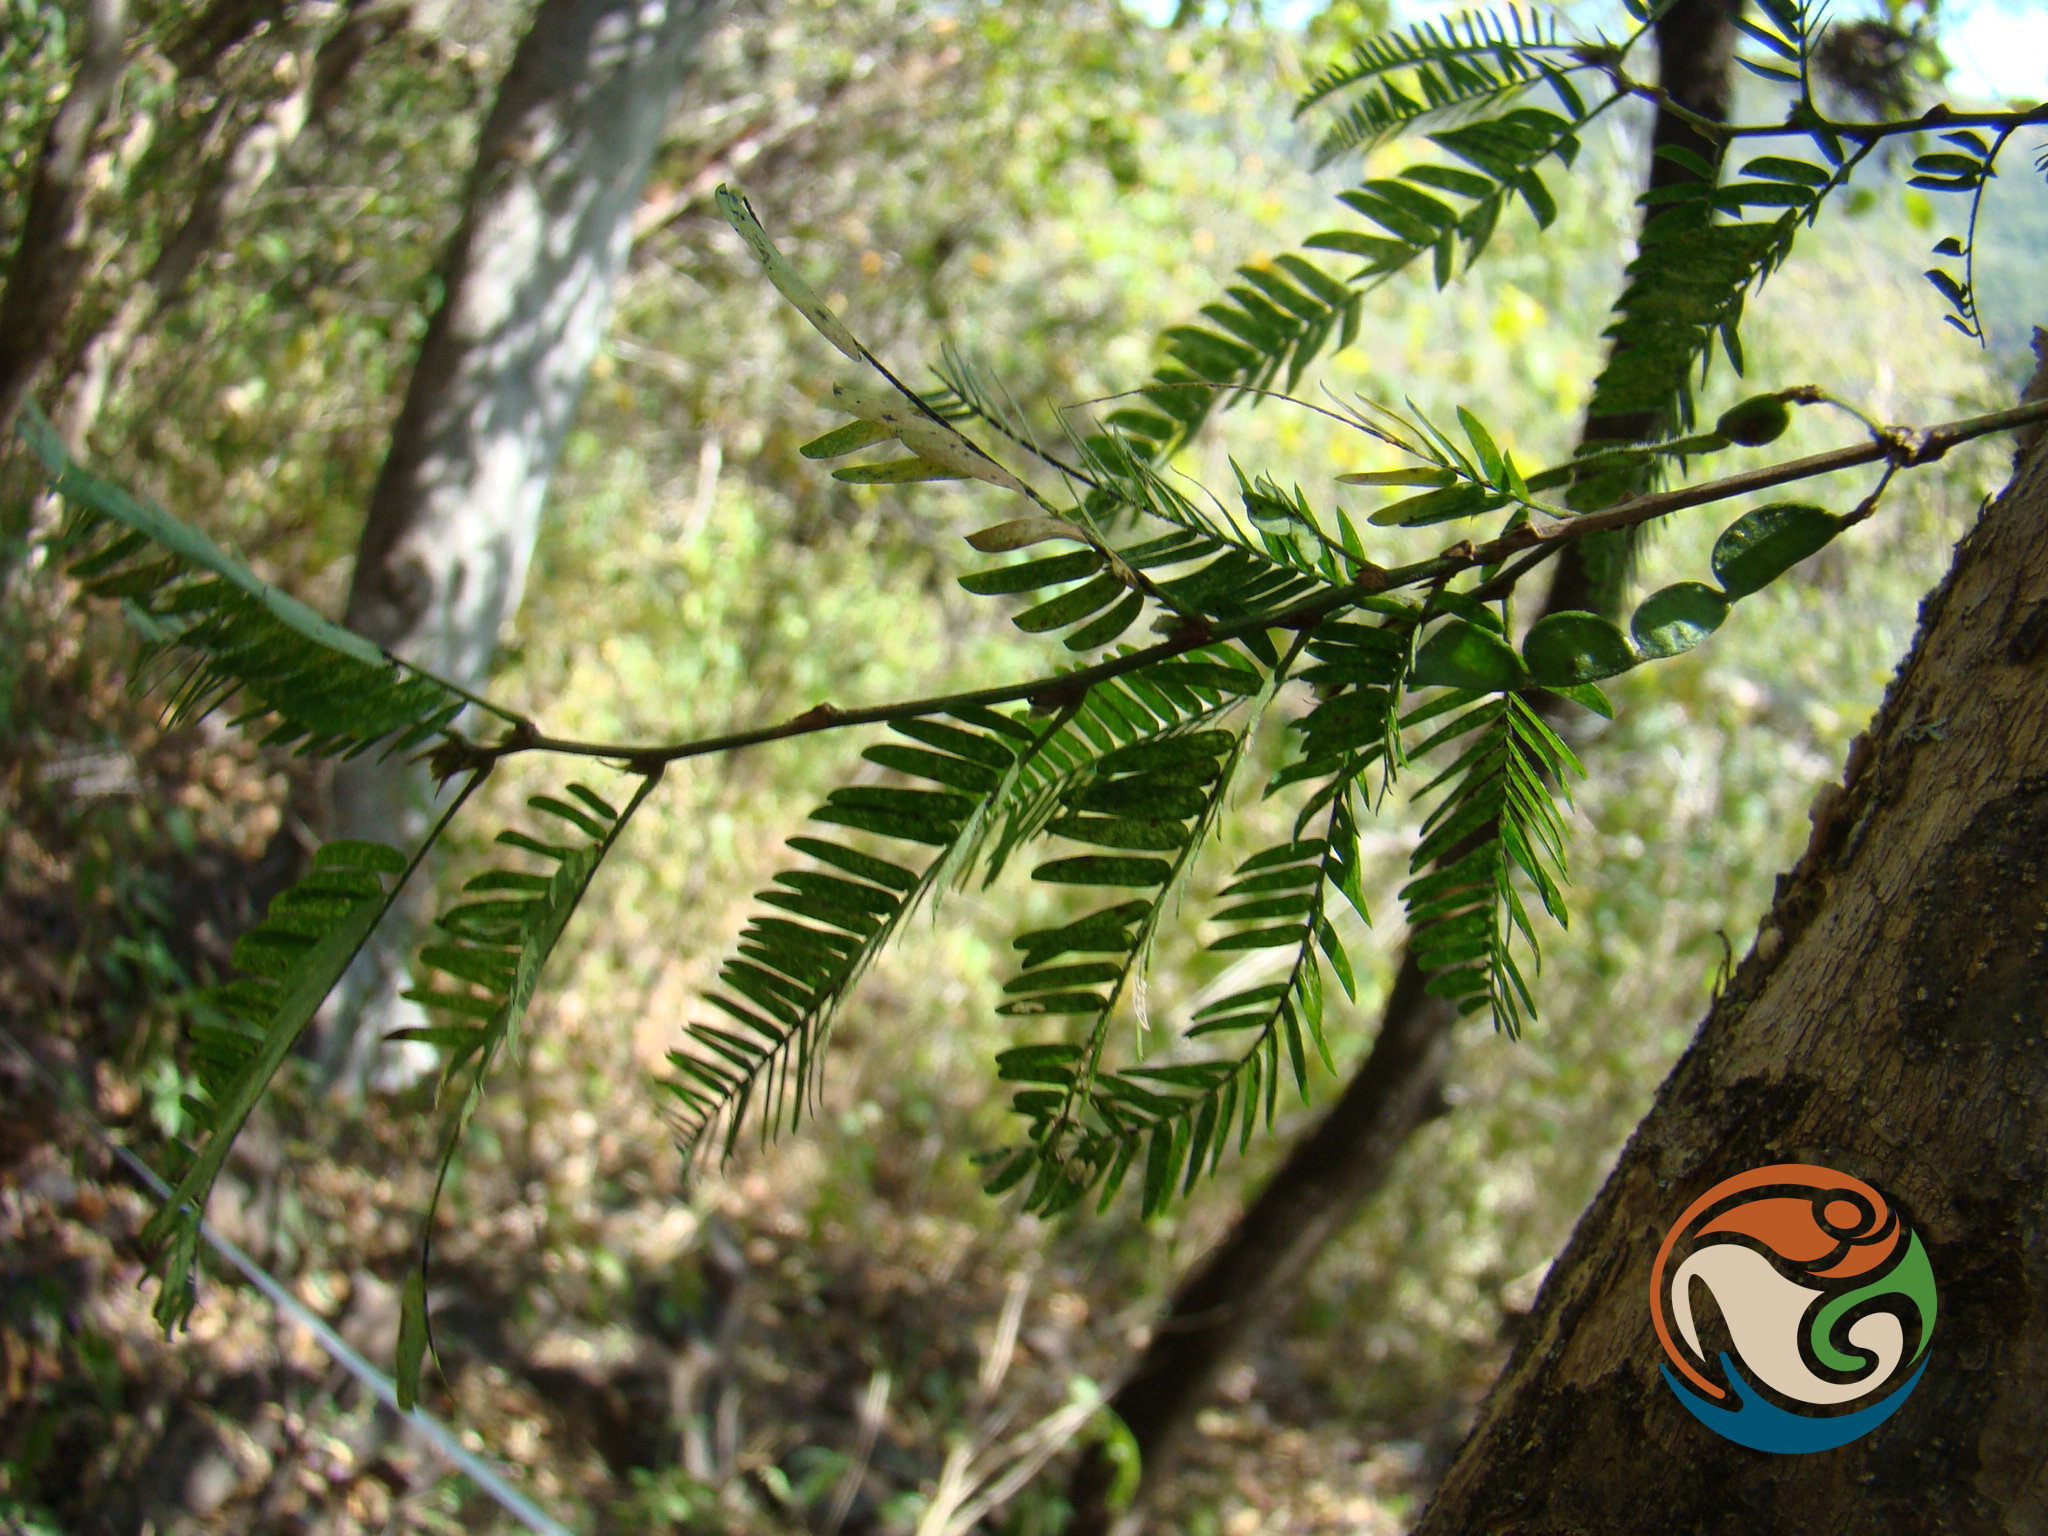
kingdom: Plantae
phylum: Tracheophyta
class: Magnoliopsida
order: Fabales
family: Fabaceae
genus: Ctenodon
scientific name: Ctenodon fascicularis
